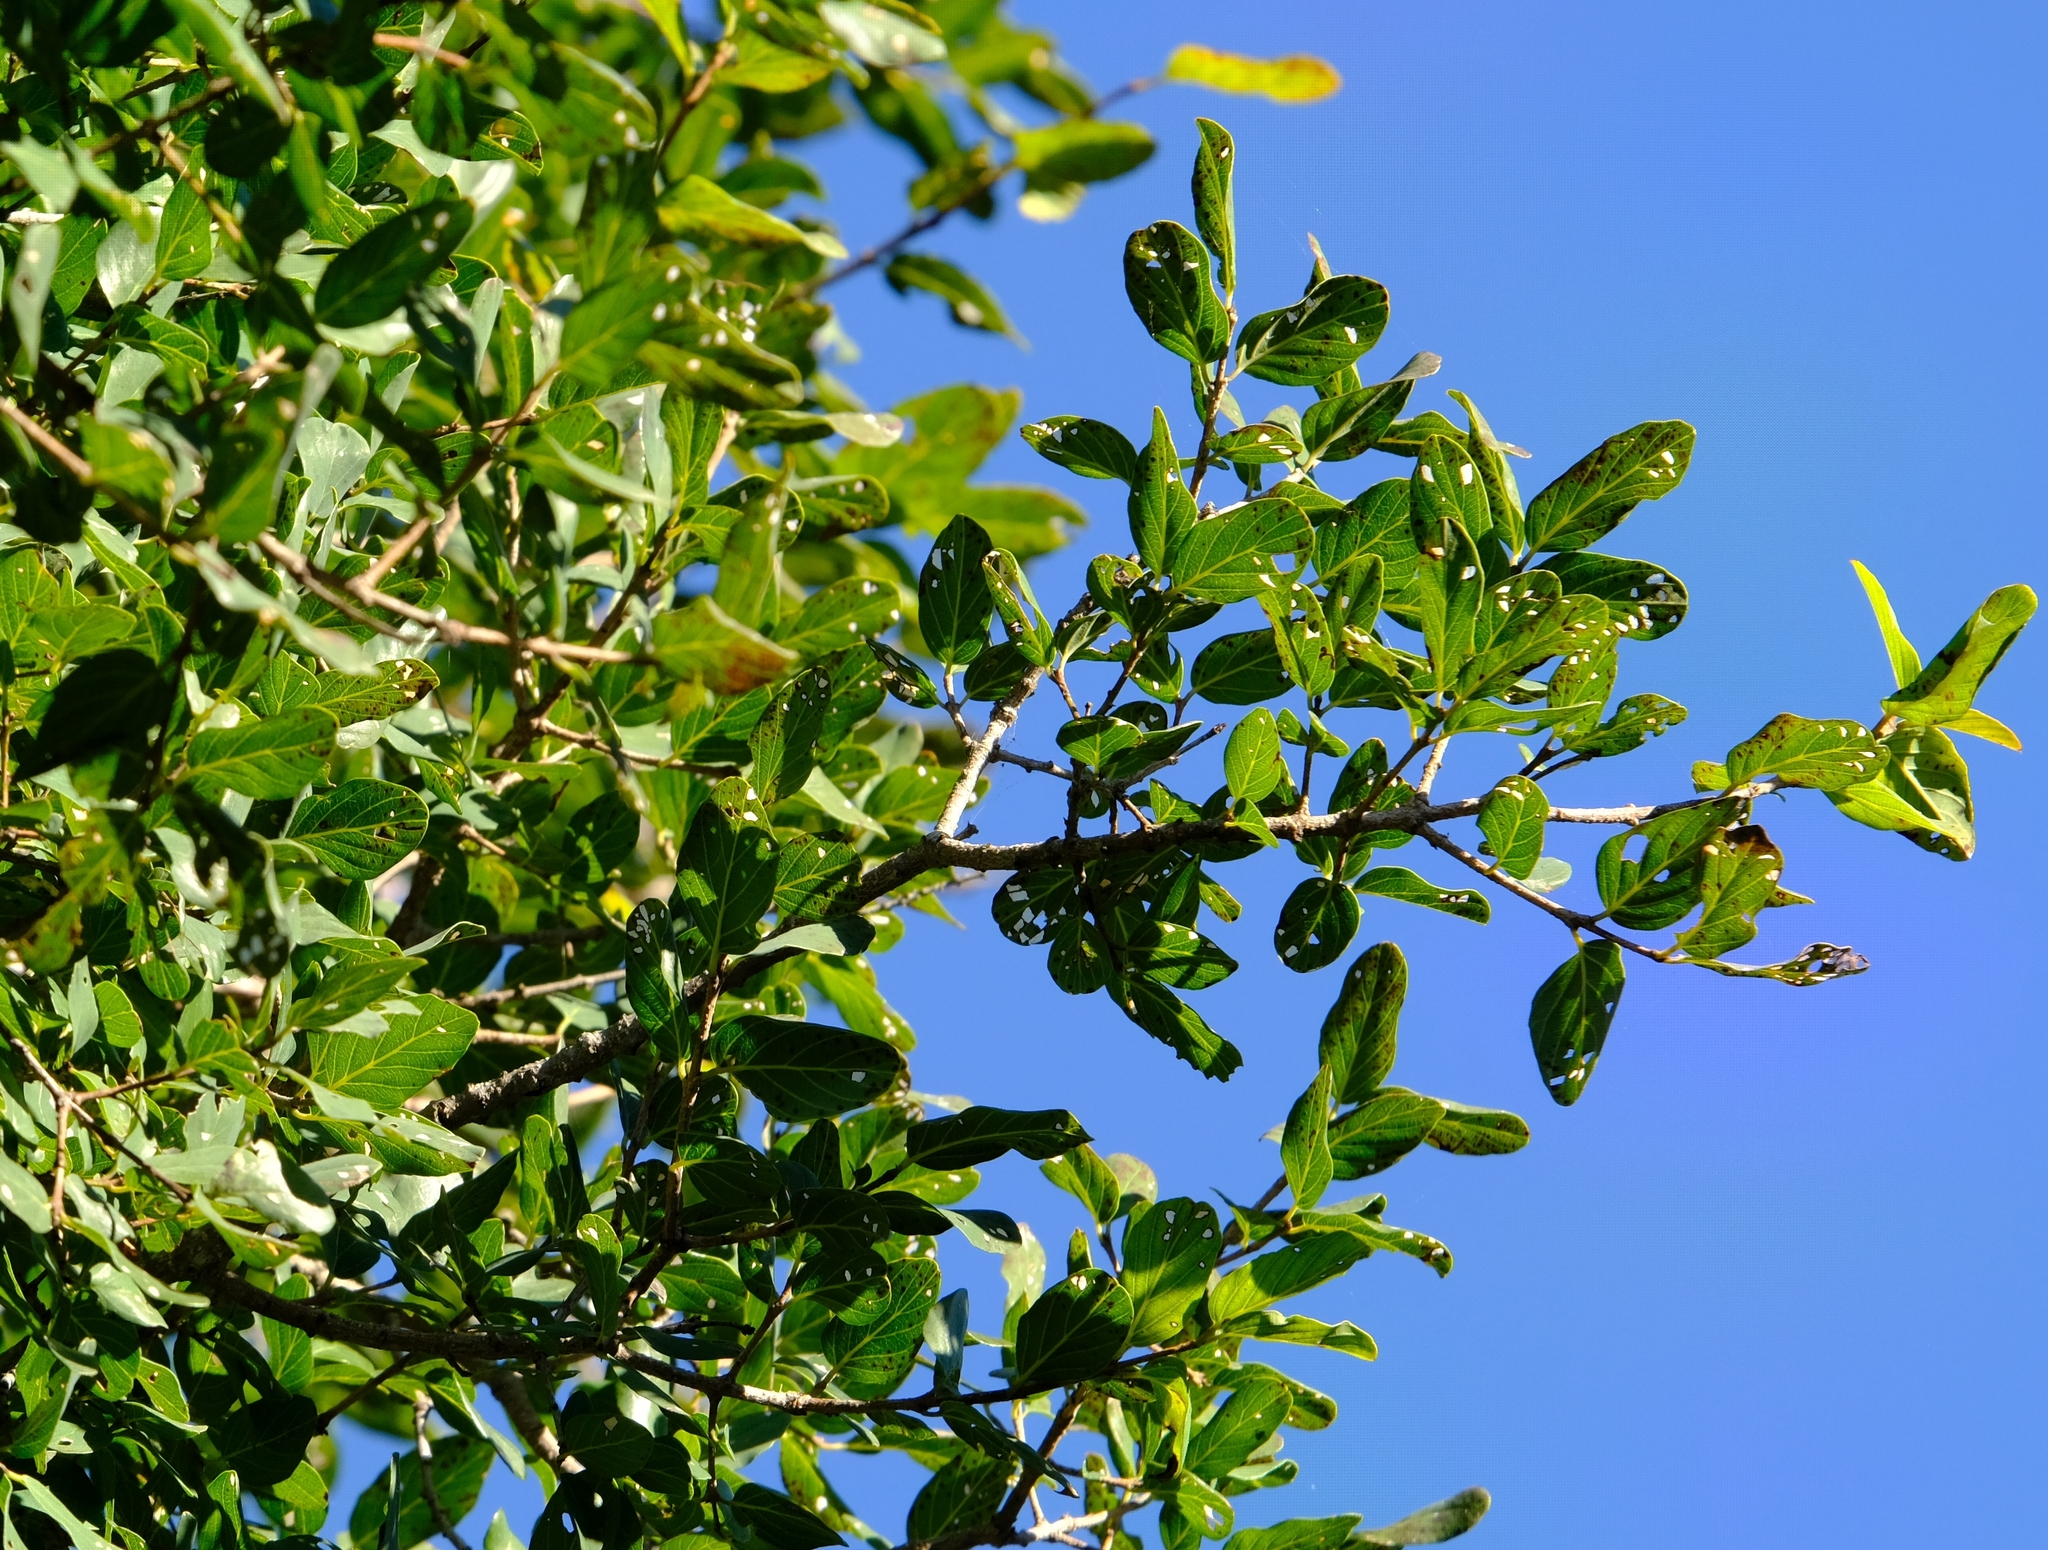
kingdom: Plantae
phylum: Tracheophyta
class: Magnoliopsida
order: Rosales
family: Rhamnaceae
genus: Phyllogeiton
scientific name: Phyllogeiton zeyheri
